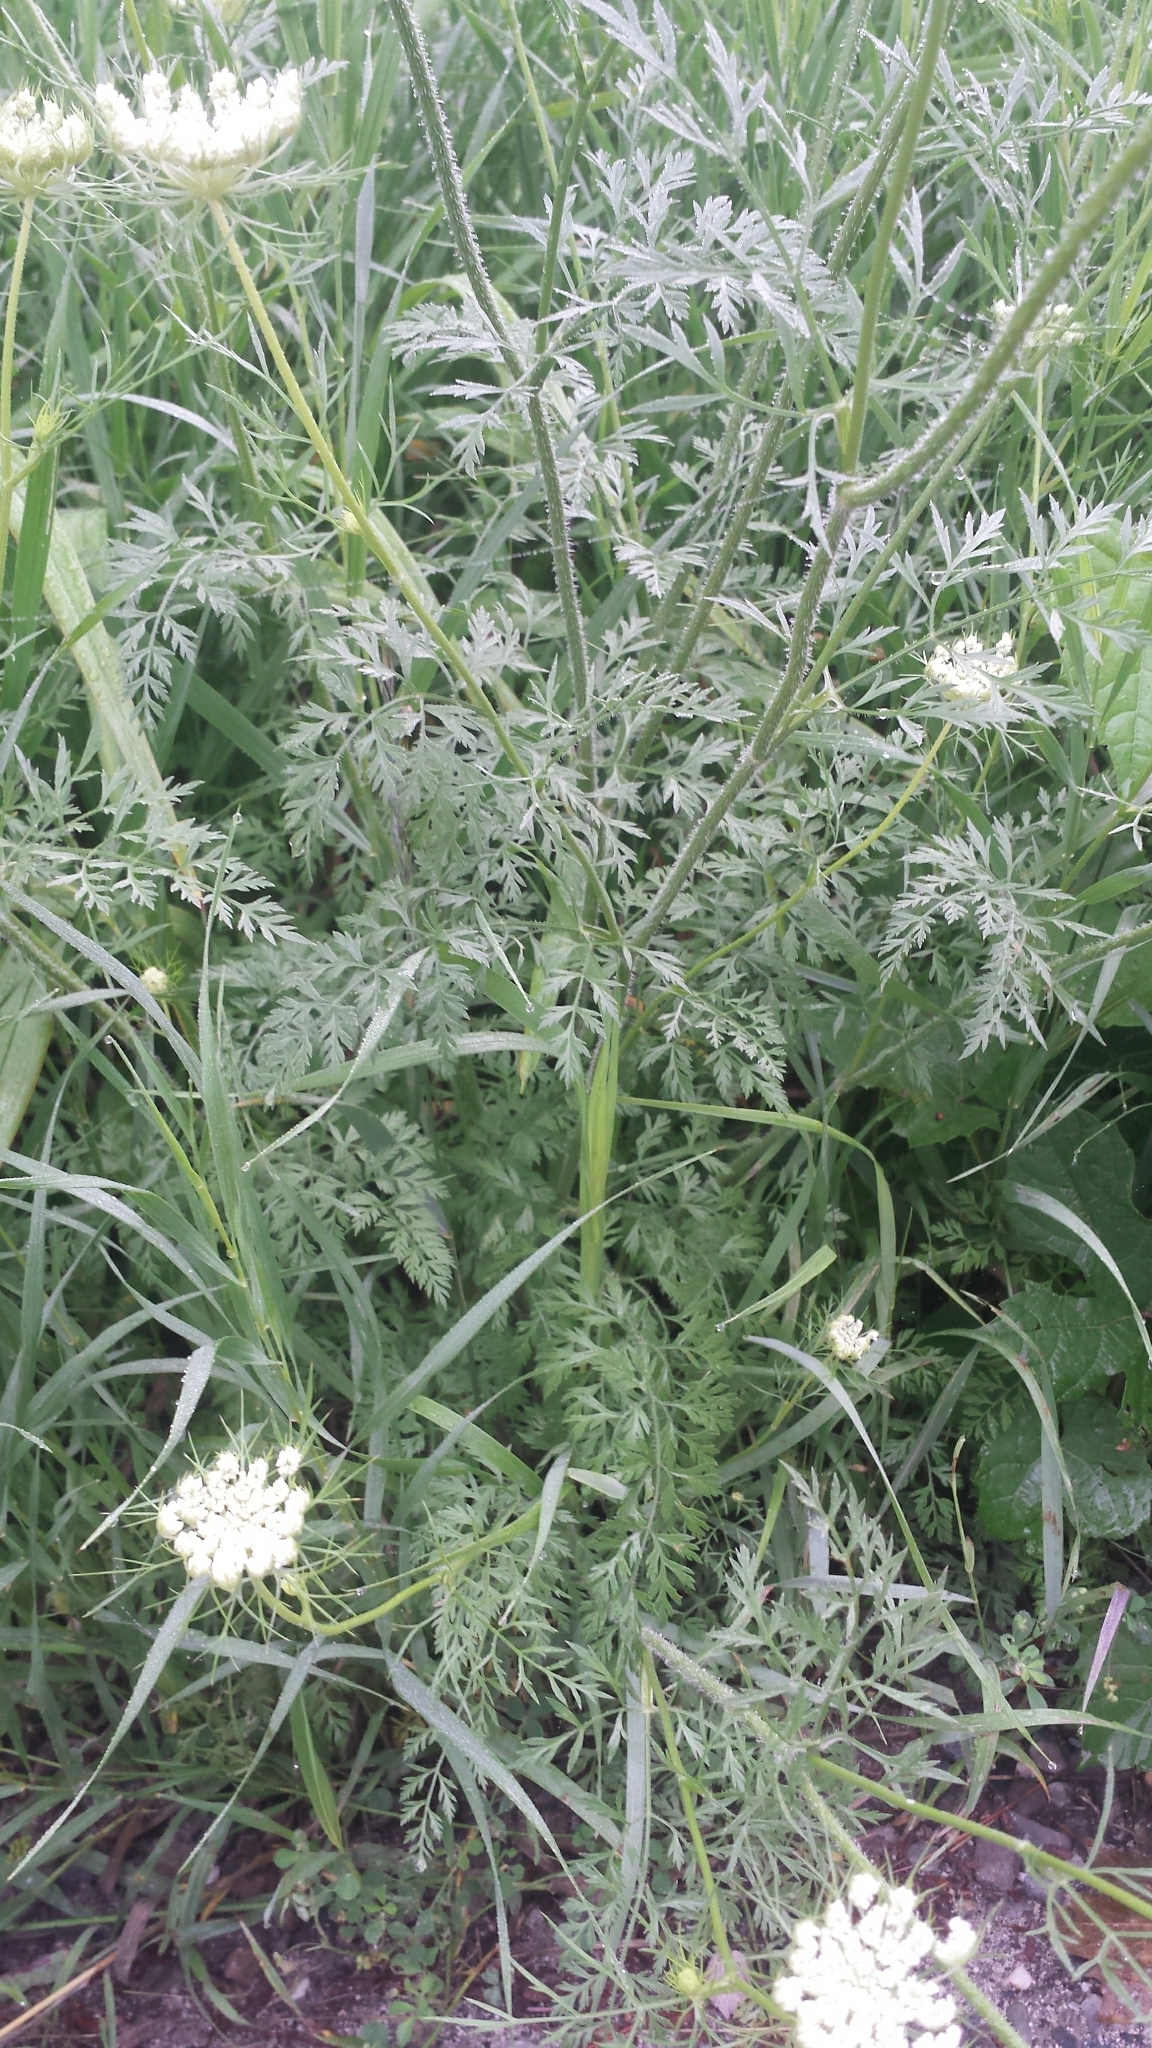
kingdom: Plantae
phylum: Tracheophyta
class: Magnoliopsida
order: Apiales
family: Apiaceae
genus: Daucus
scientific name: Daucus carota
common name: Wild carrot
